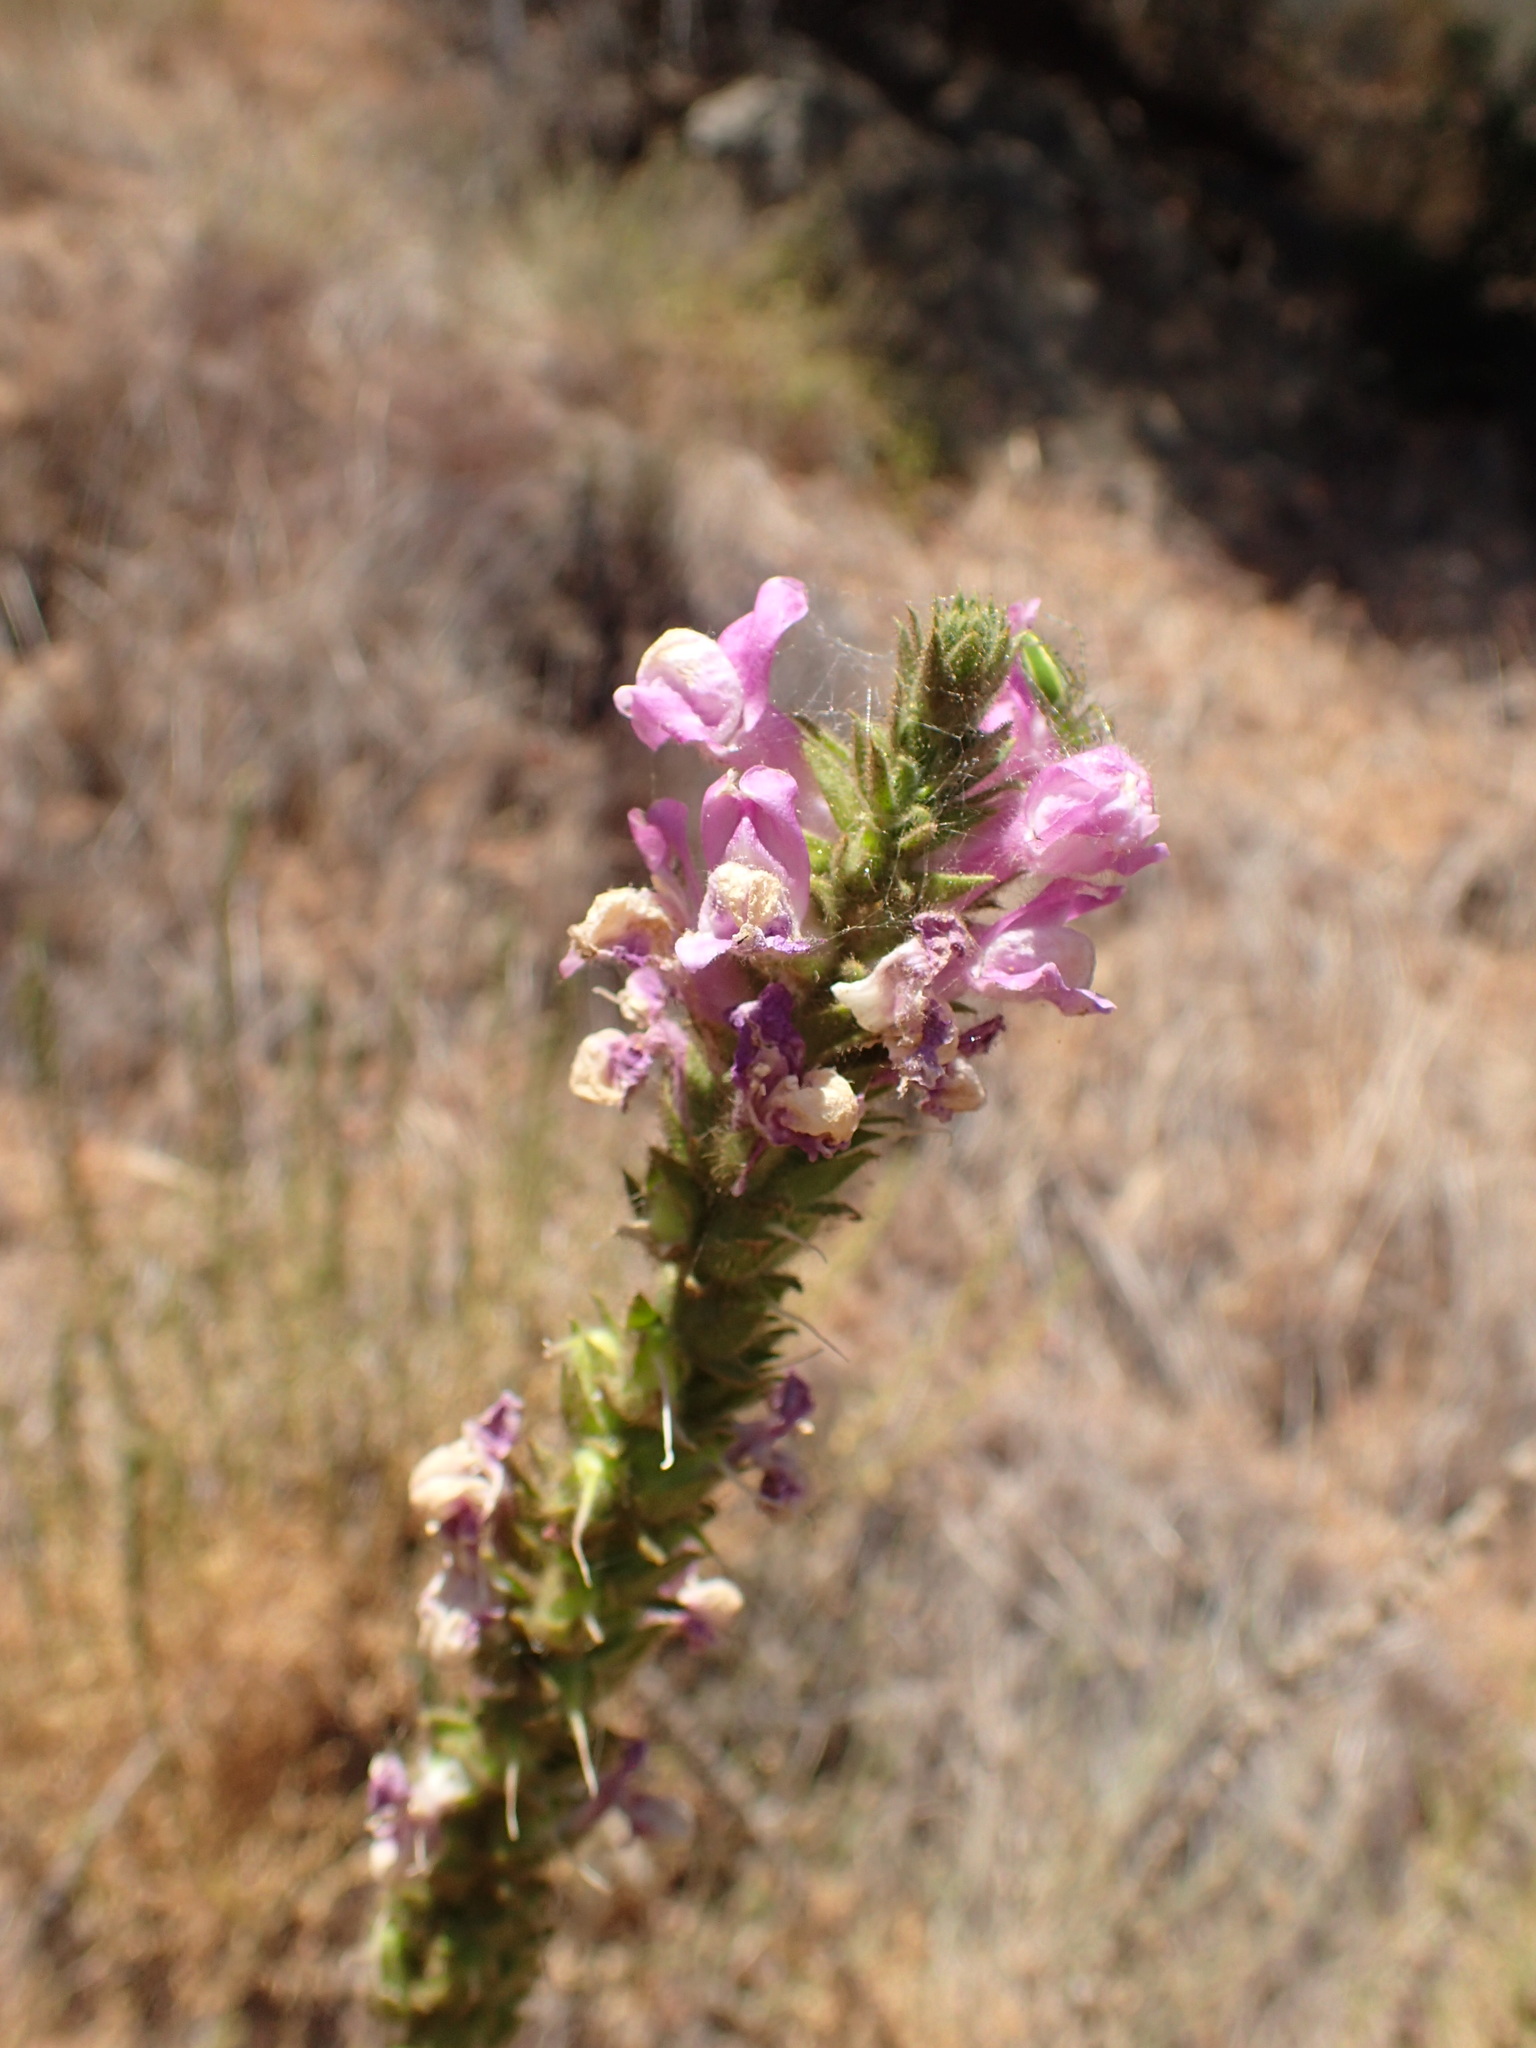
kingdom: Plantae
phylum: Tracheophyta
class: Magnoliopsida
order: Lamiales
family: Plantaginaceae
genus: Sairocarpus
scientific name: Sairocarpus multiflorus
